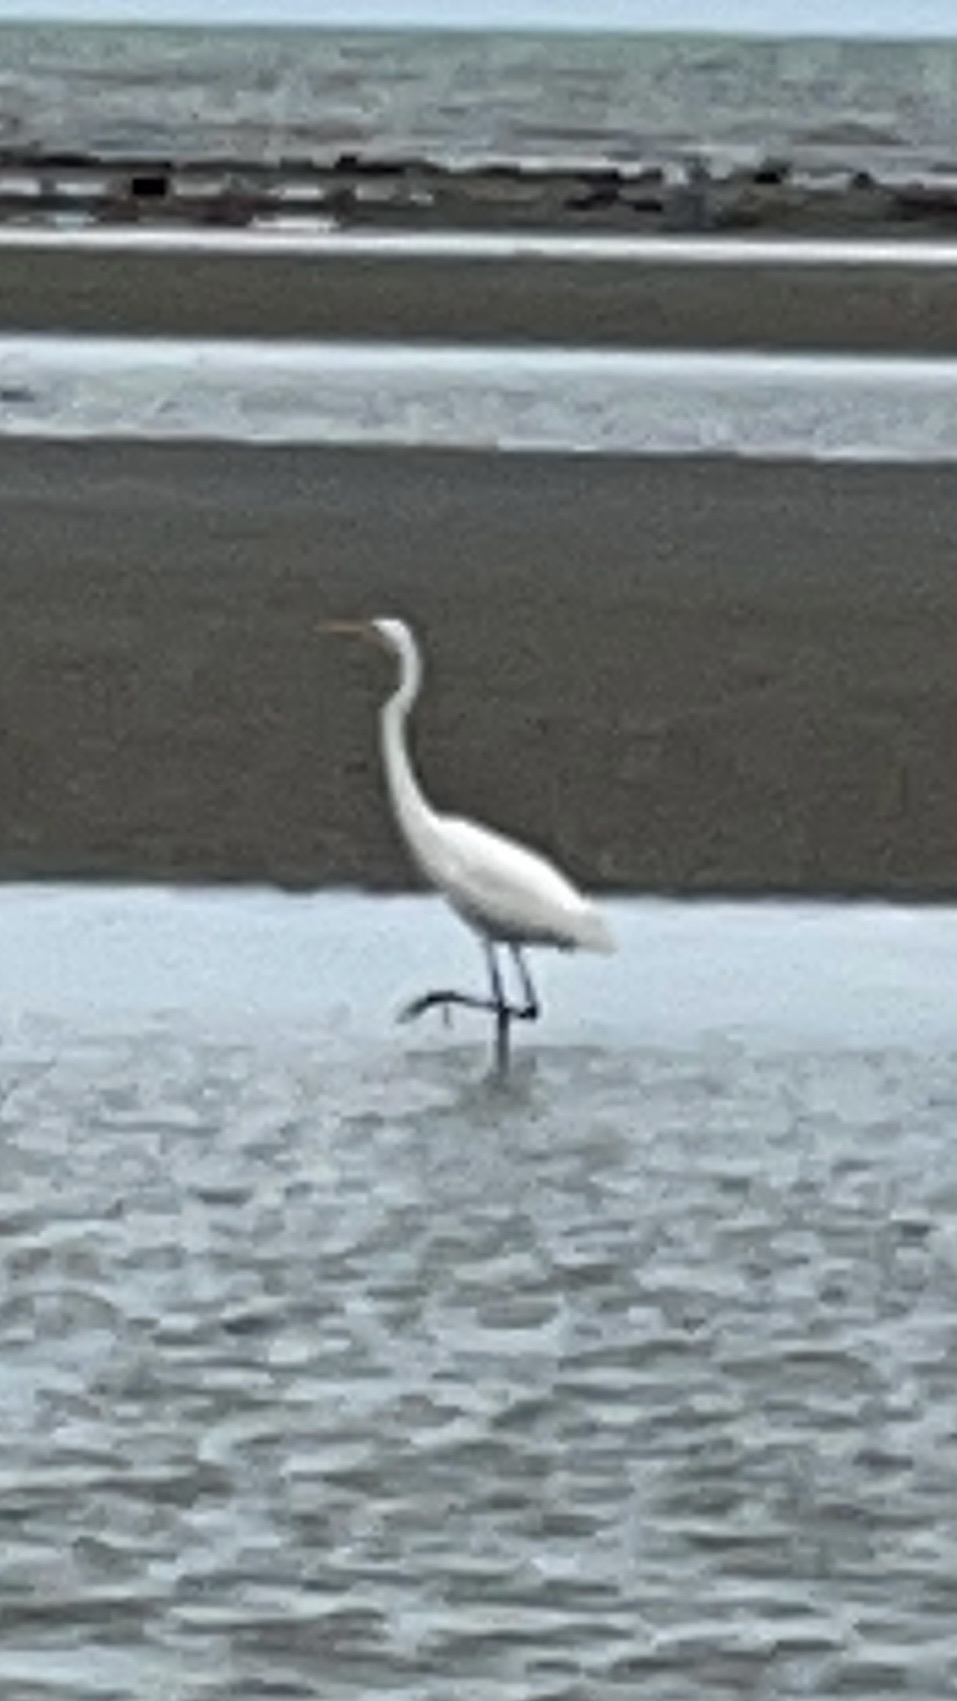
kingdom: Animalia
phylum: Chordata
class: Aves
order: Pelecaniformes
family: Ardeidae
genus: Ardea
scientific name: Ardea alba
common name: Great egret
